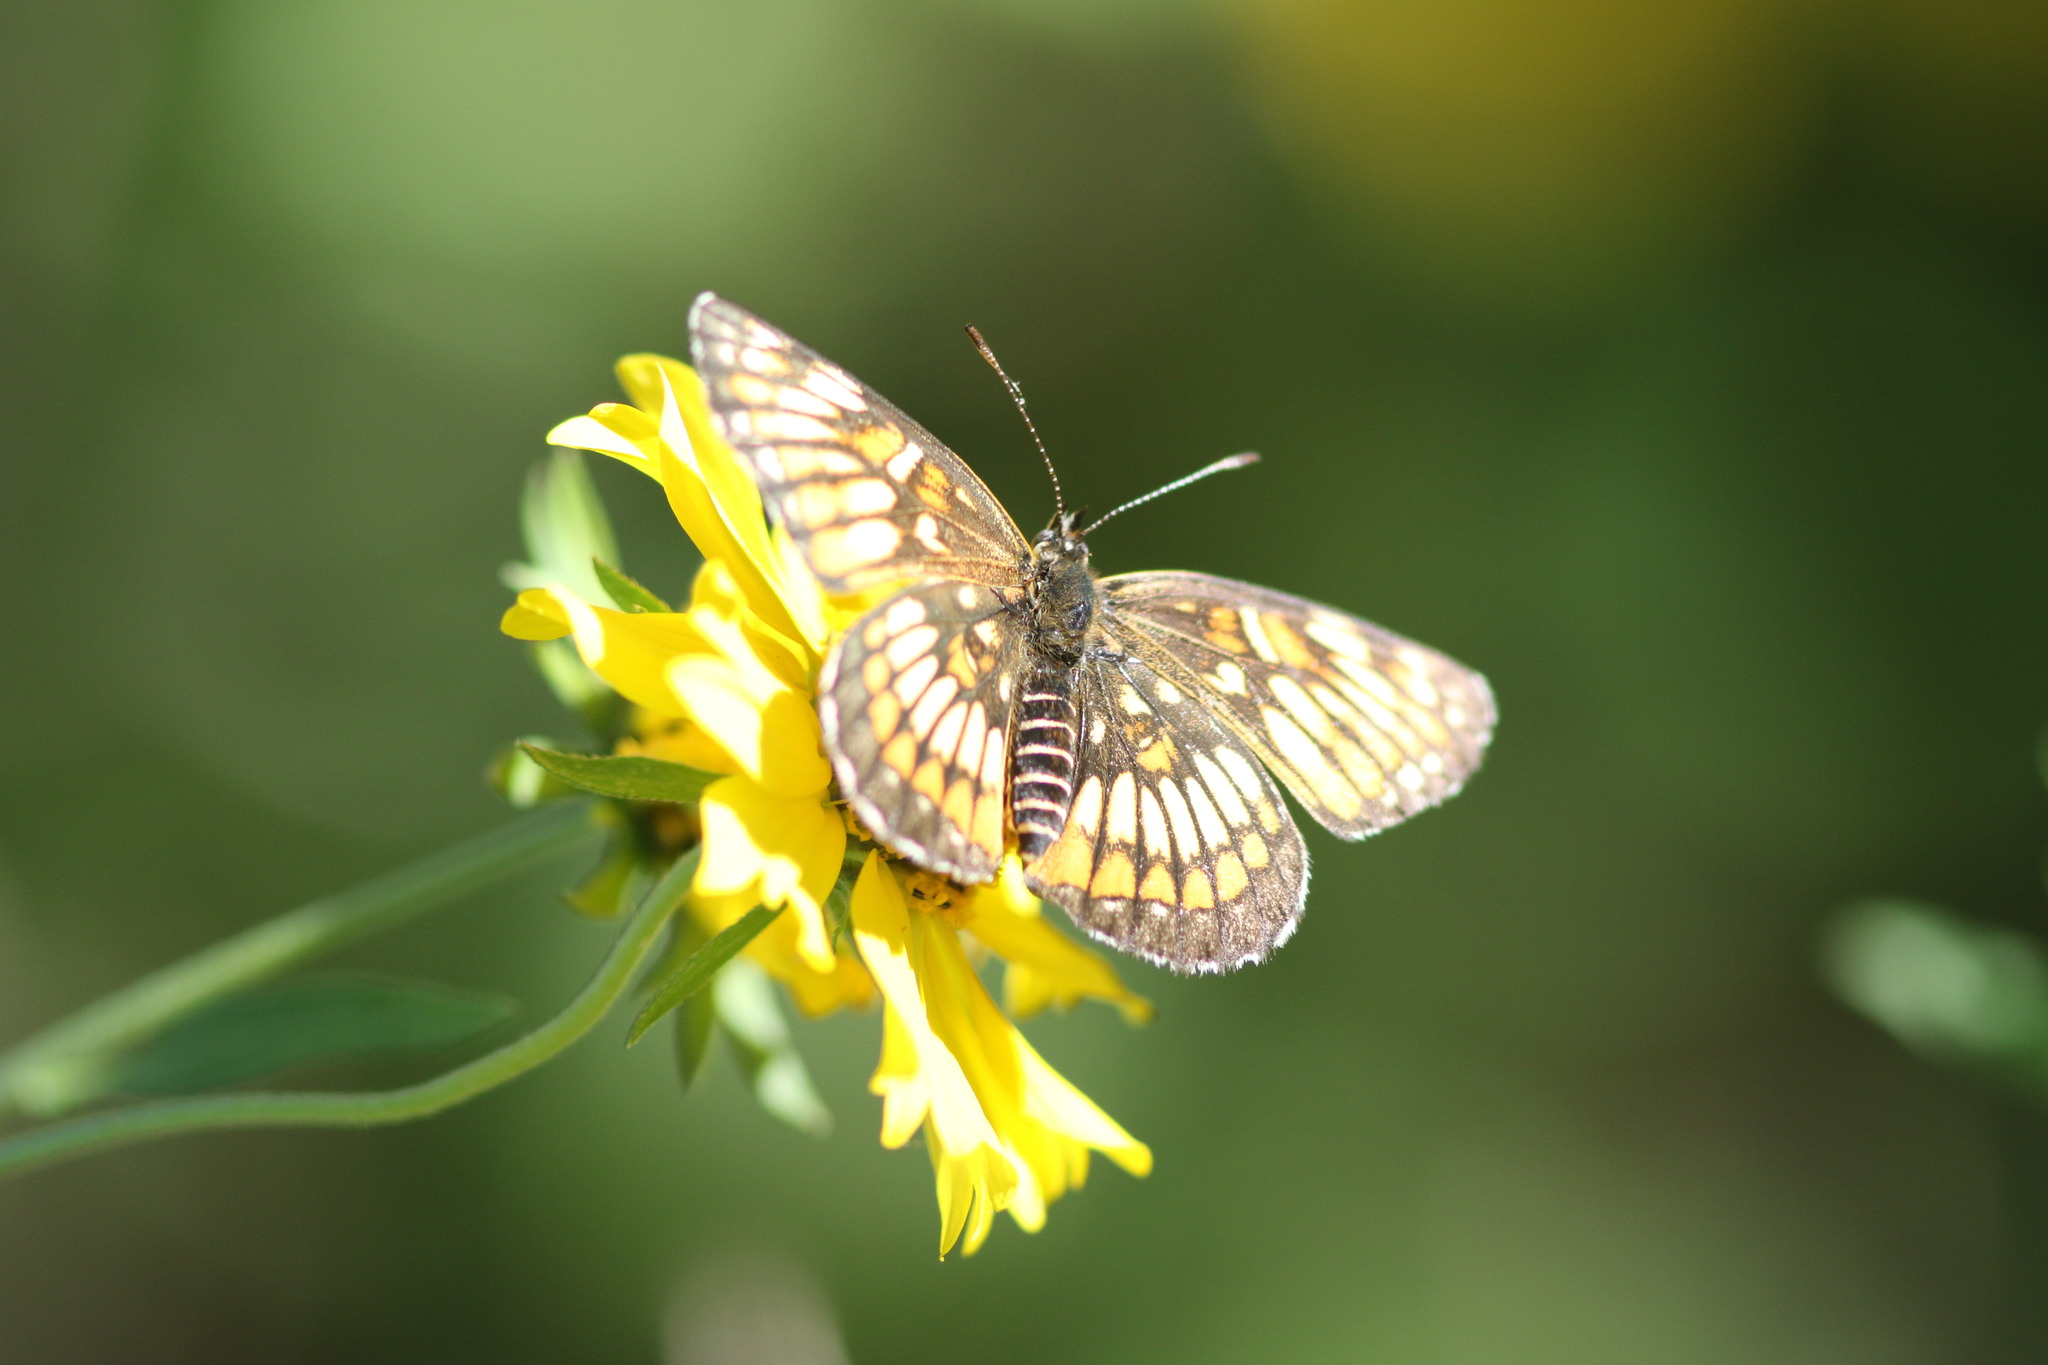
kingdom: Animalia
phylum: Arthropoda
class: Insecta
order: Lepidoptera
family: Nymphalidae
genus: Thessalia
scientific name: Thessalia theona
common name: Nymphalid moth
